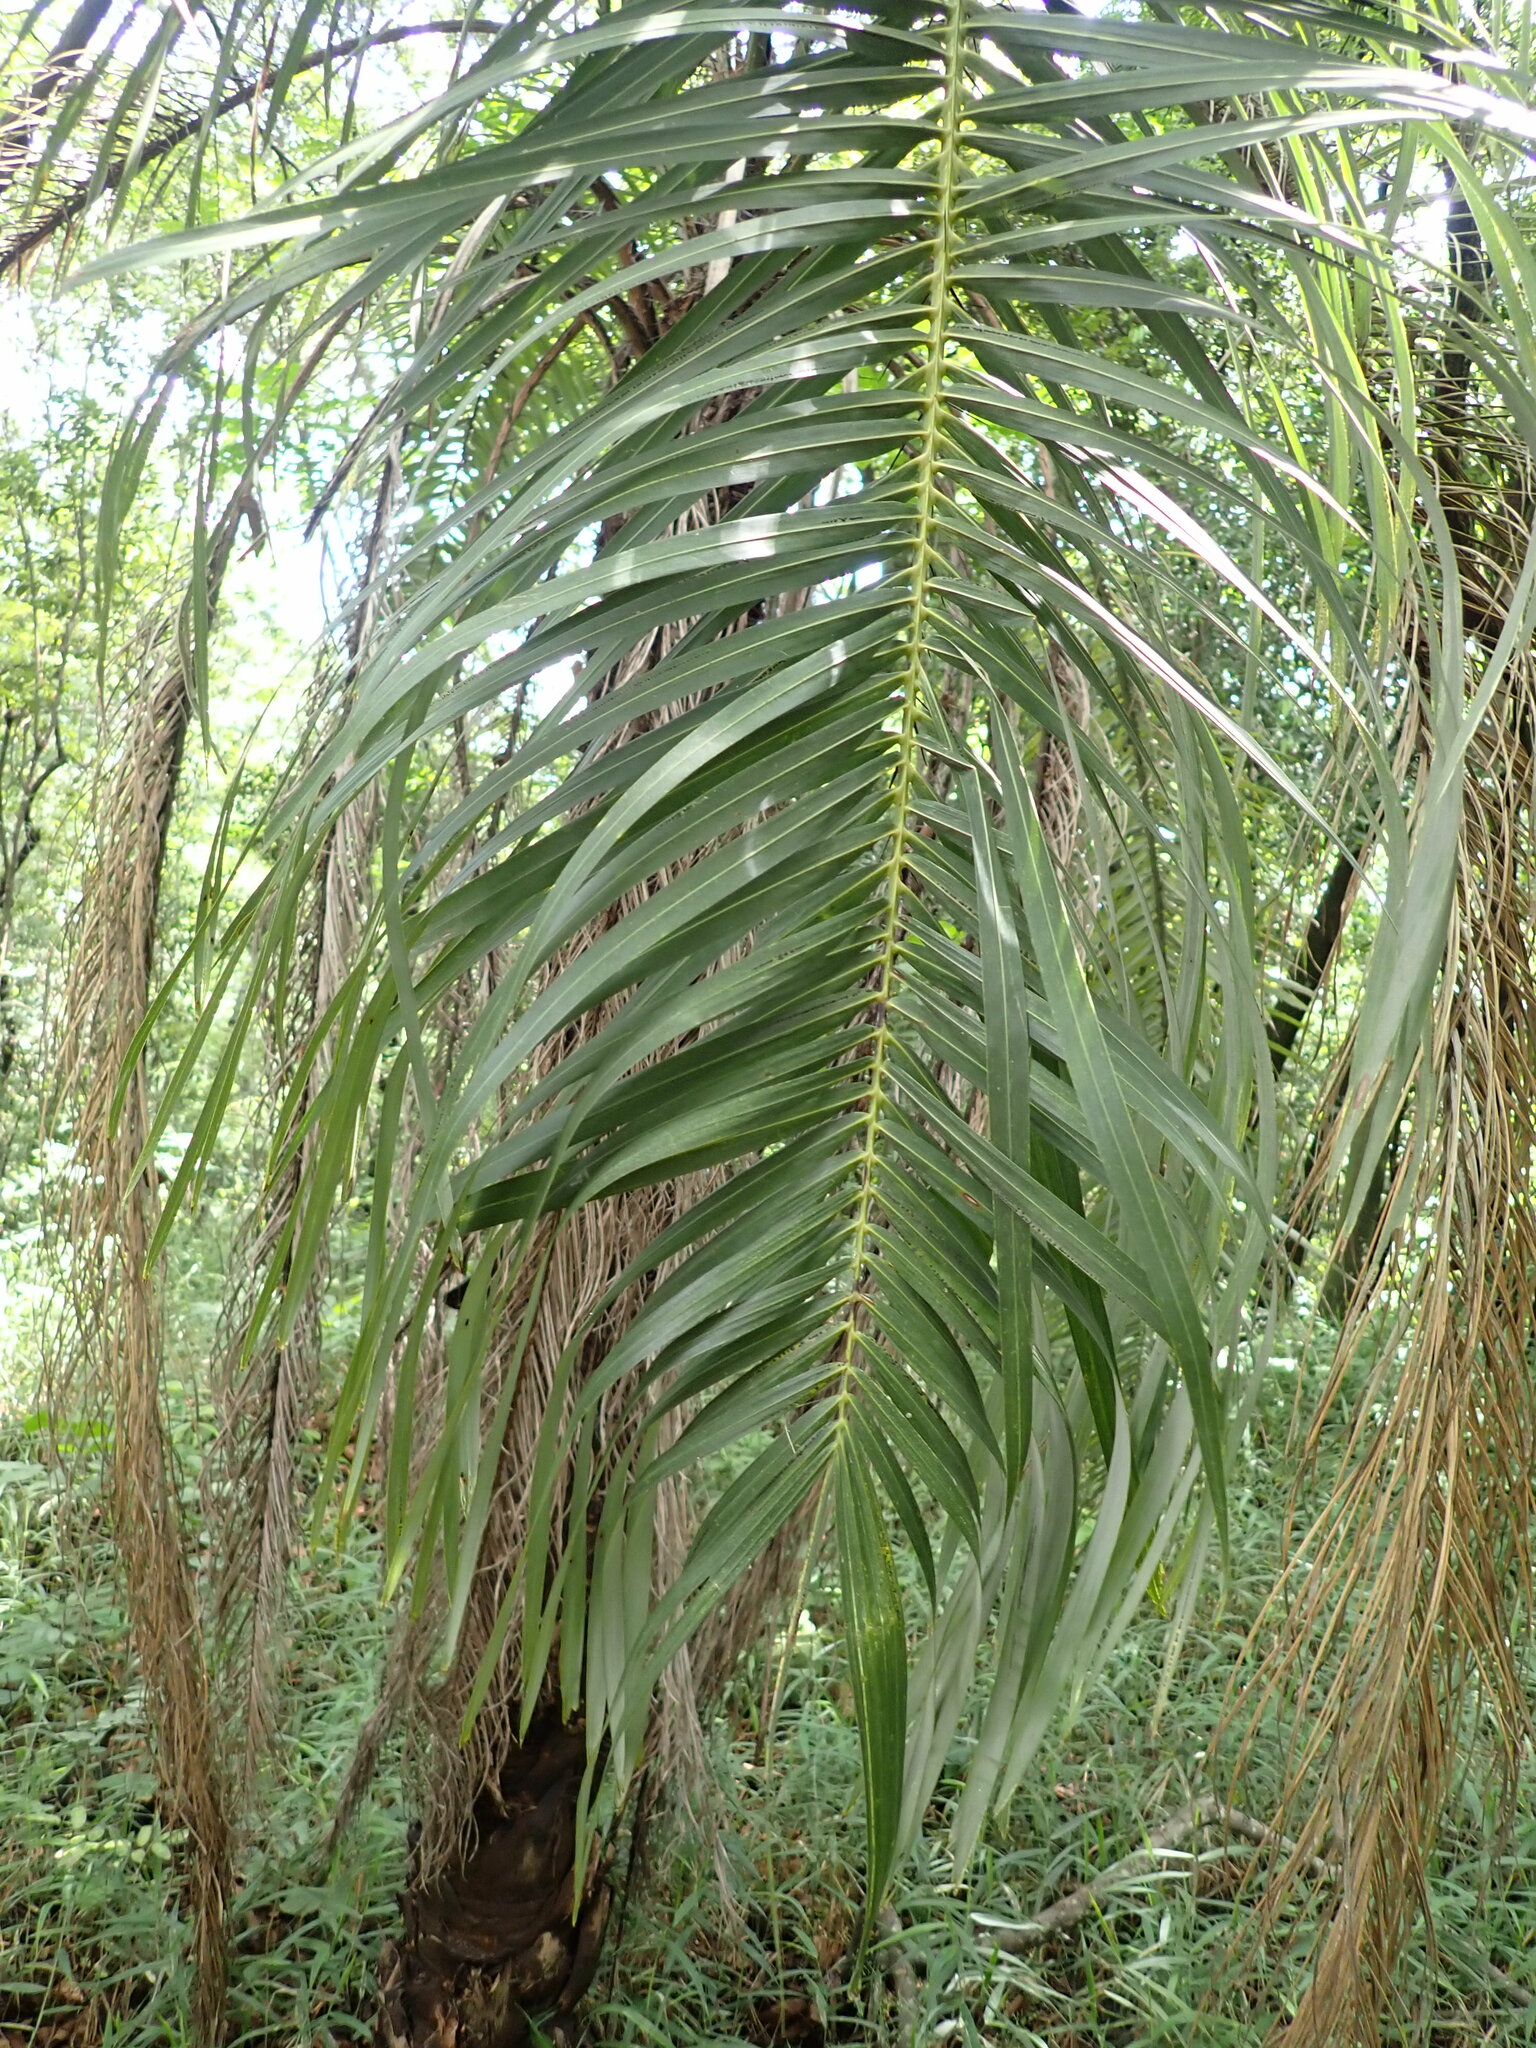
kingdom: Plantae
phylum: Tracheophyta
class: Liliopsida
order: Arecales
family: Arecaceae
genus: Acrocomia
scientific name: Acrocomia aculeata
